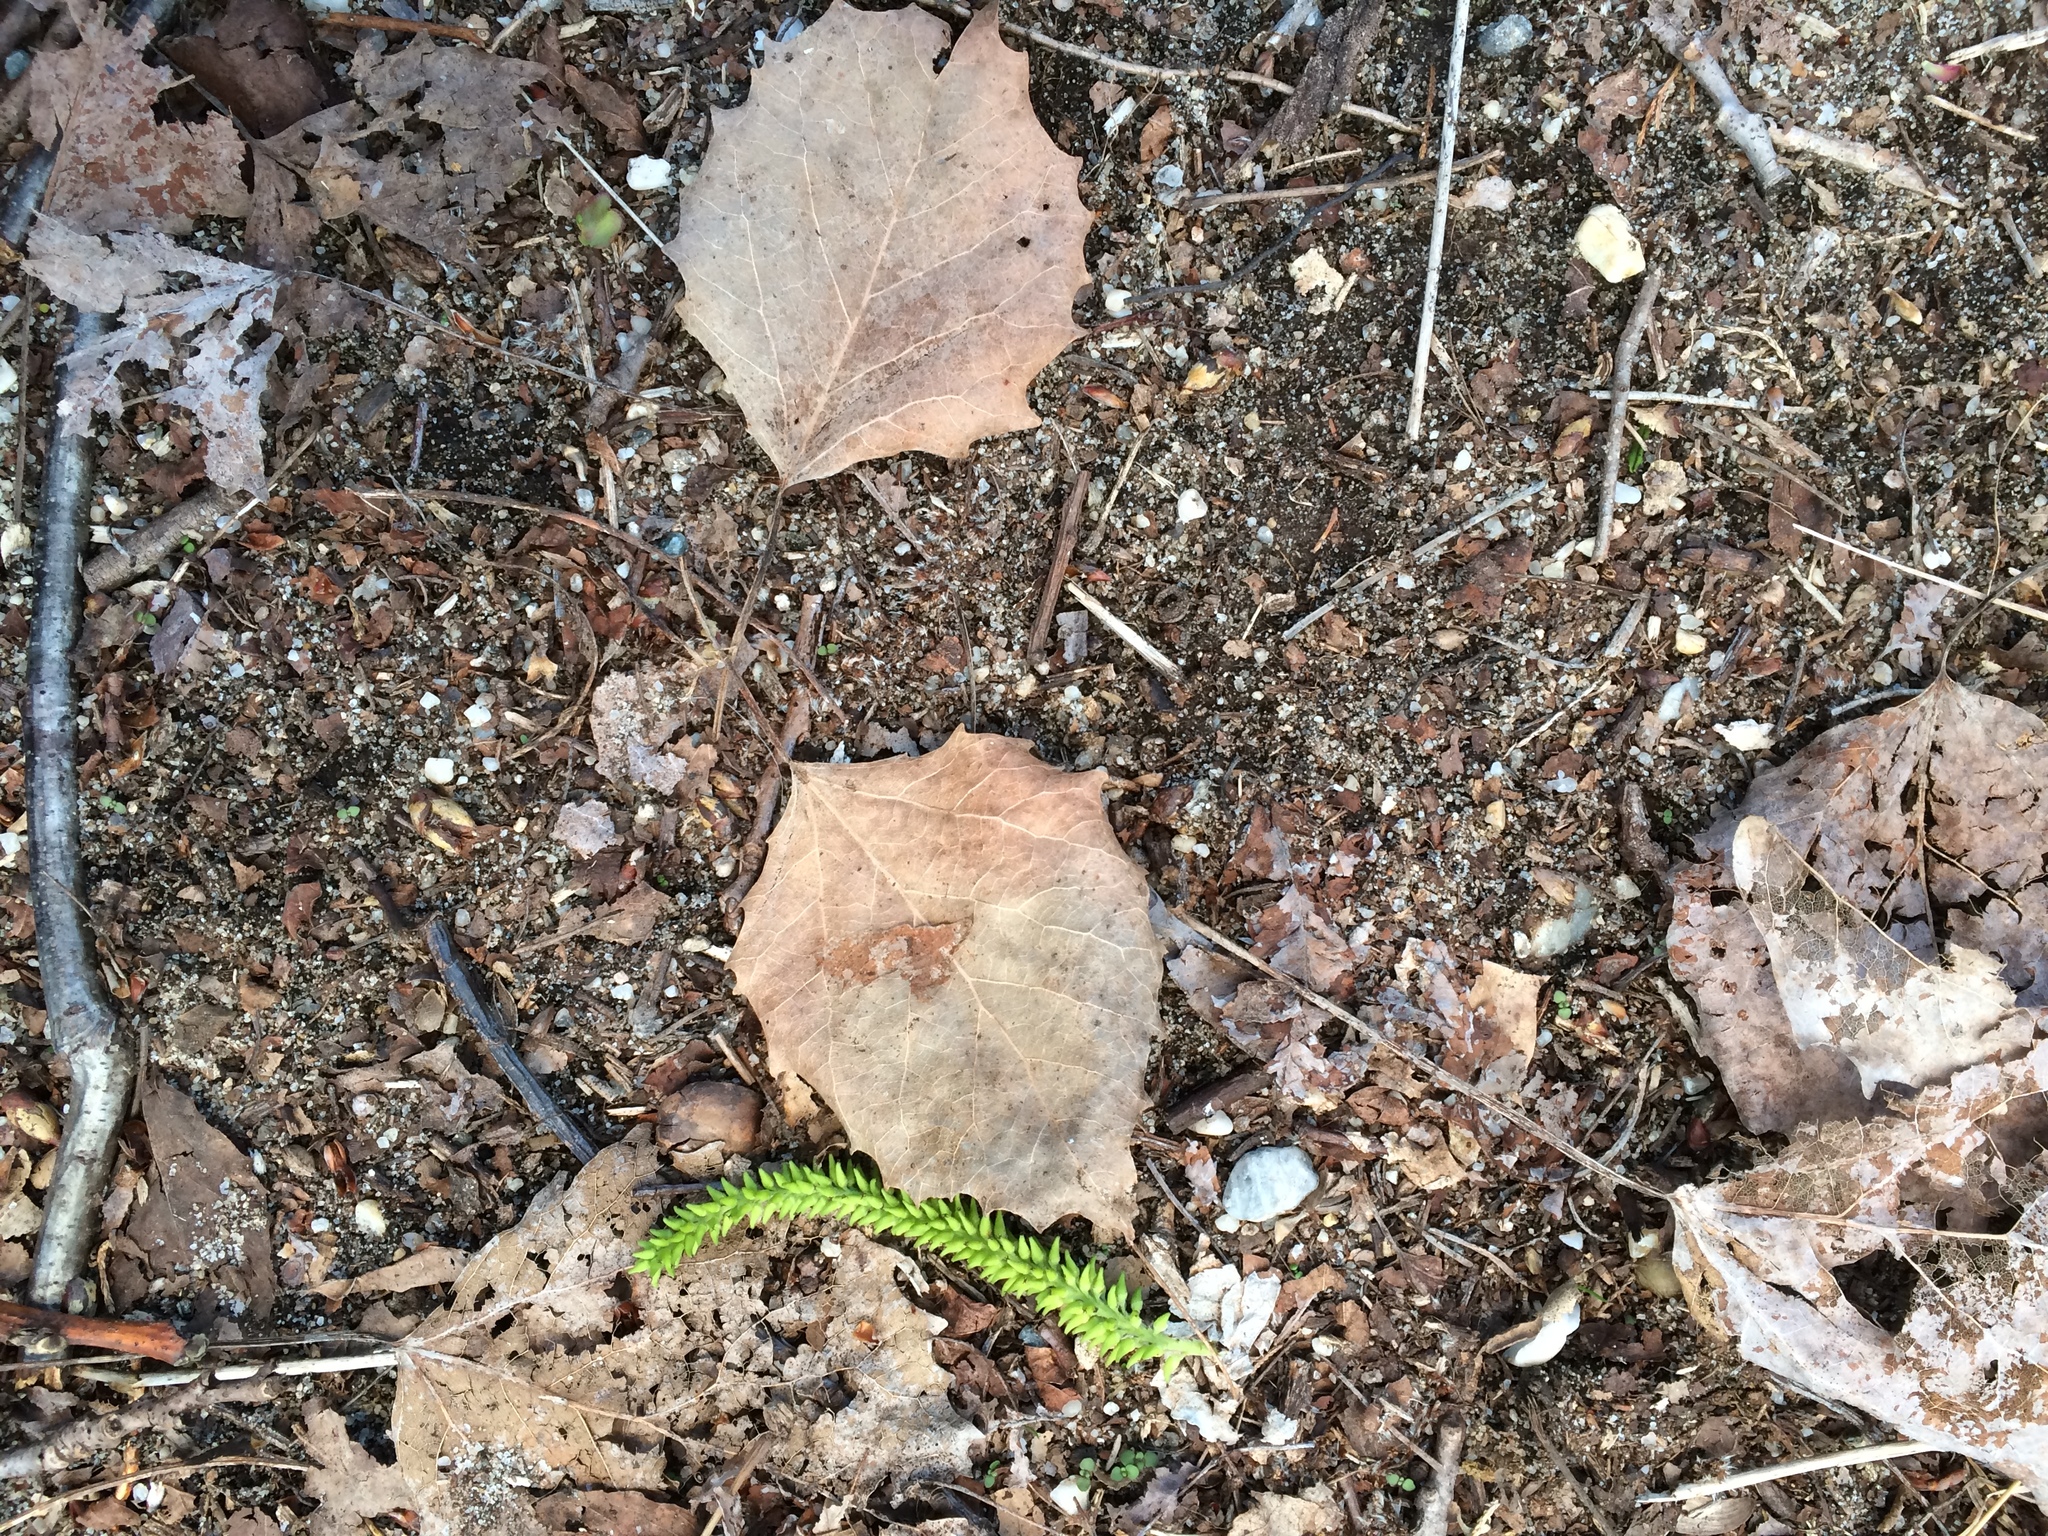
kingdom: Plantae
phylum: Tracheophyta
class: Magnoliopsida
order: Malpighiales
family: Salicaceae
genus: Populus
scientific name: Populus grandidentata
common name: Bigtooth aspen
